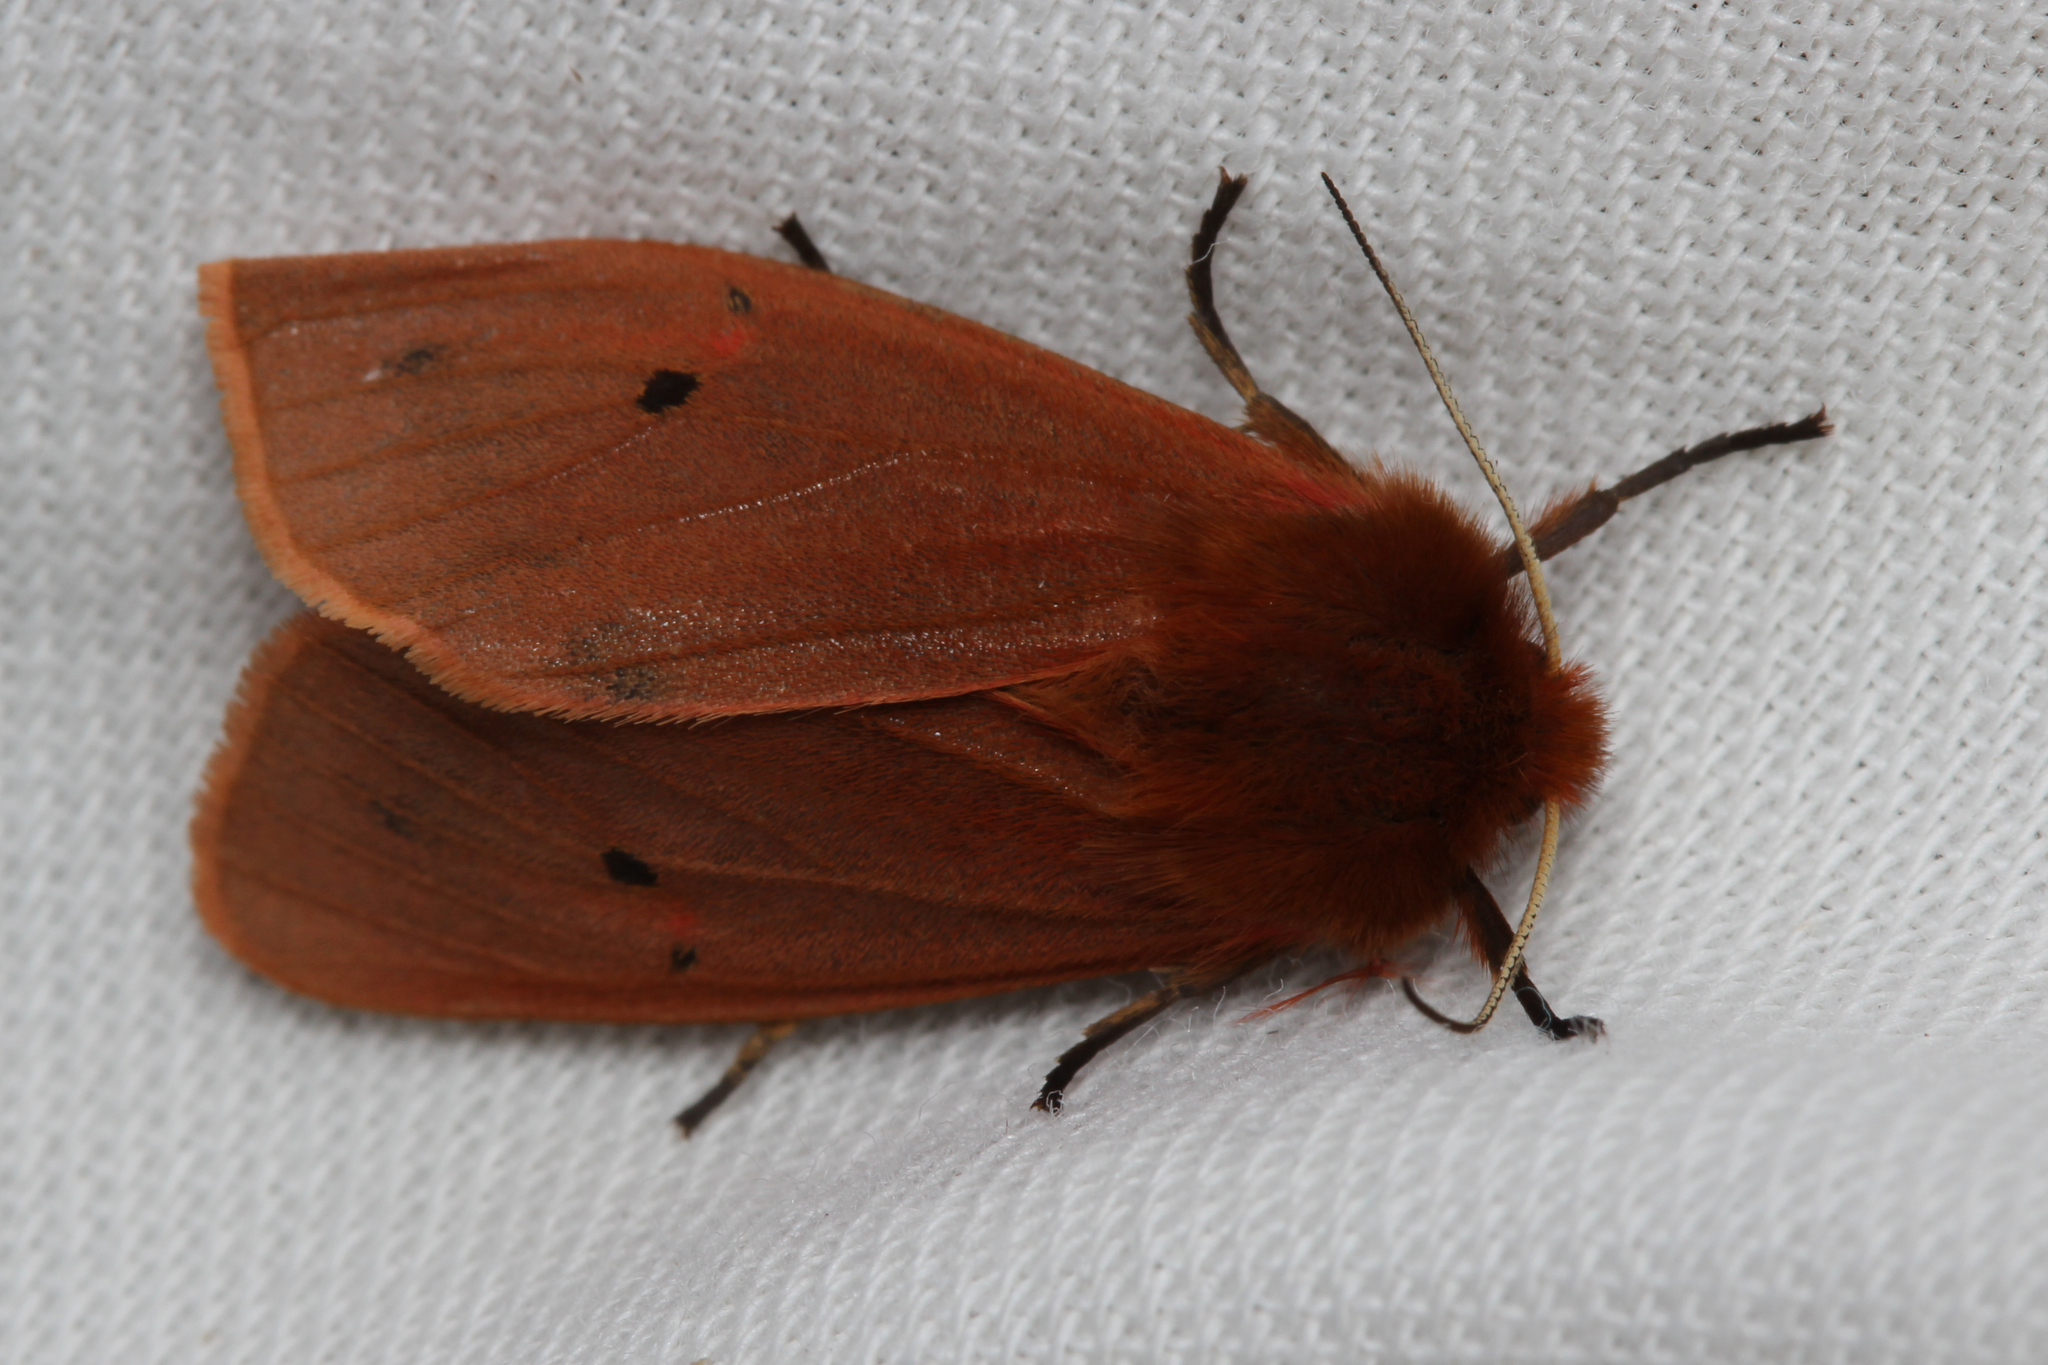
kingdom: Animalia
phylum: Arthropoda
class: Insecta
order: Lepidoptera
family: Erebidae
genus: Phragmatobia
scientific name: Phragmatobia fuliginosa
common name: Ruby tiger
